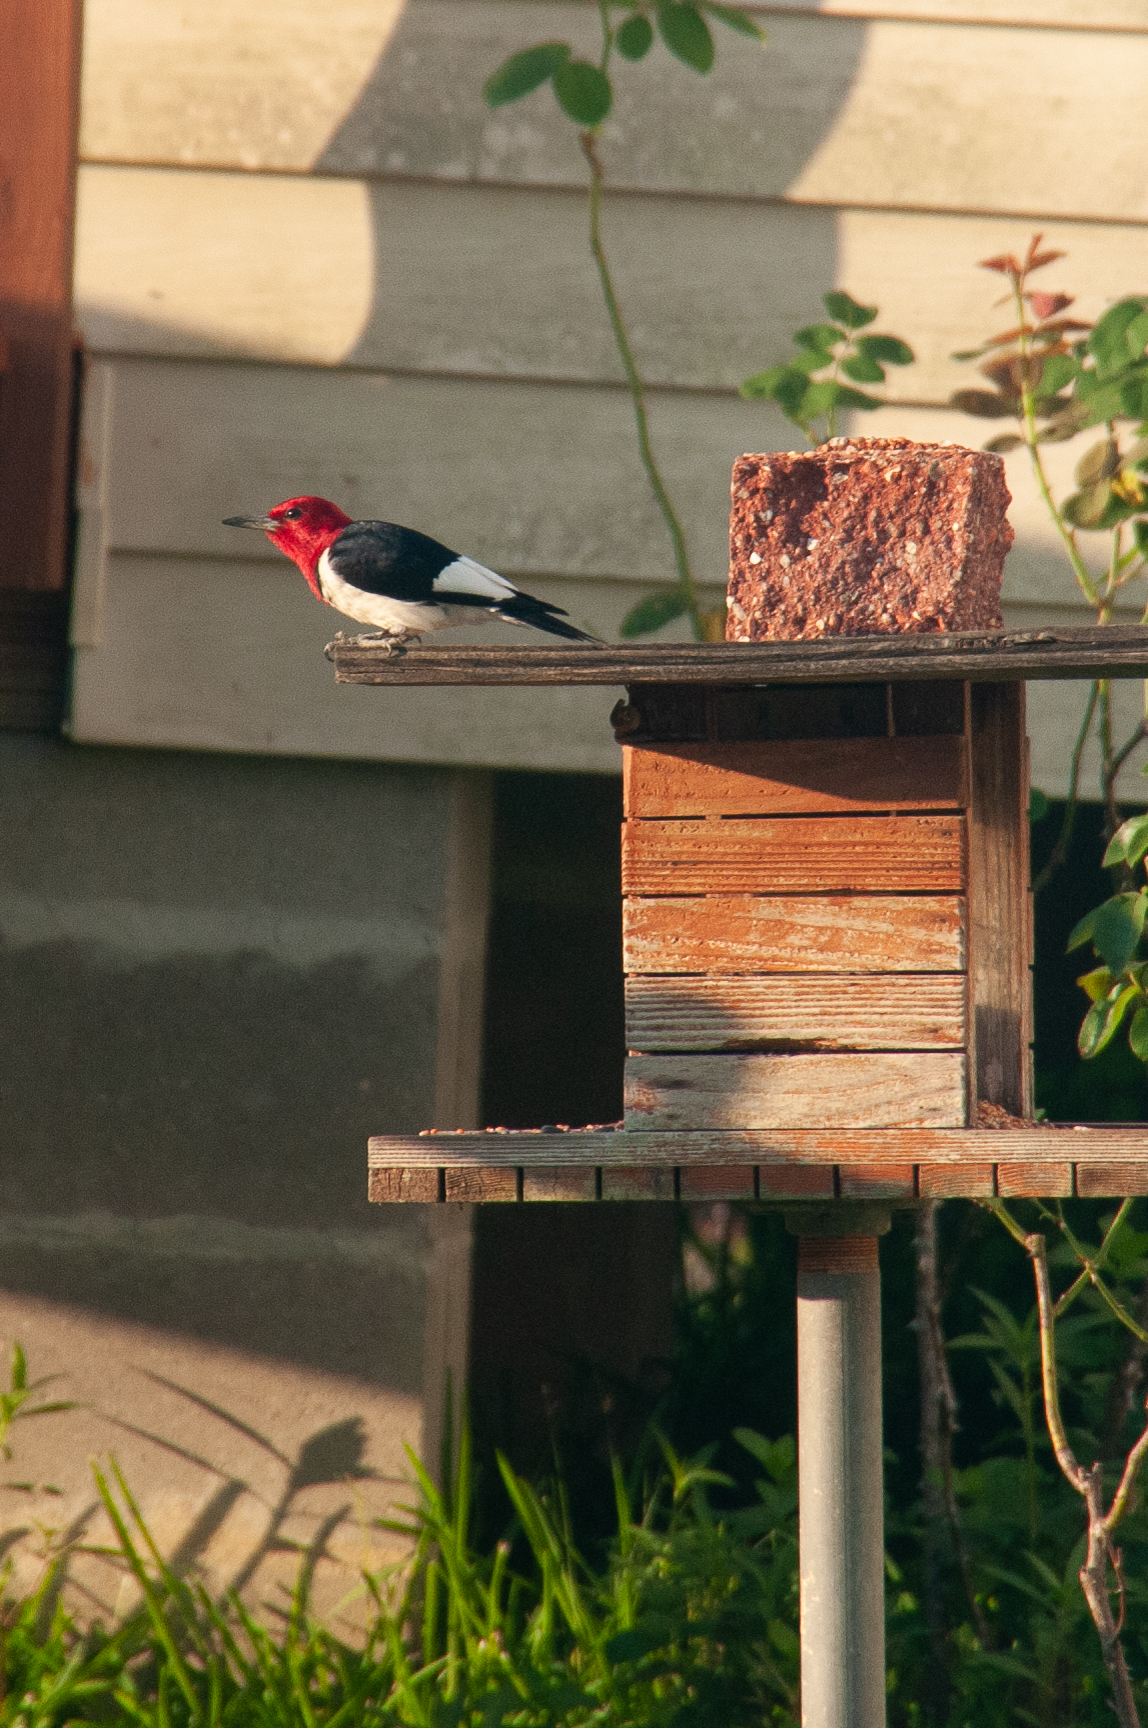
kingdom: Animalia
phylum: Chordata
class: Aves
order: Piciformes
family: Picidae
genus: Melanerpes
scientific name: Melanerpes erythrocephalus
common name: Red-headed woodpecker
